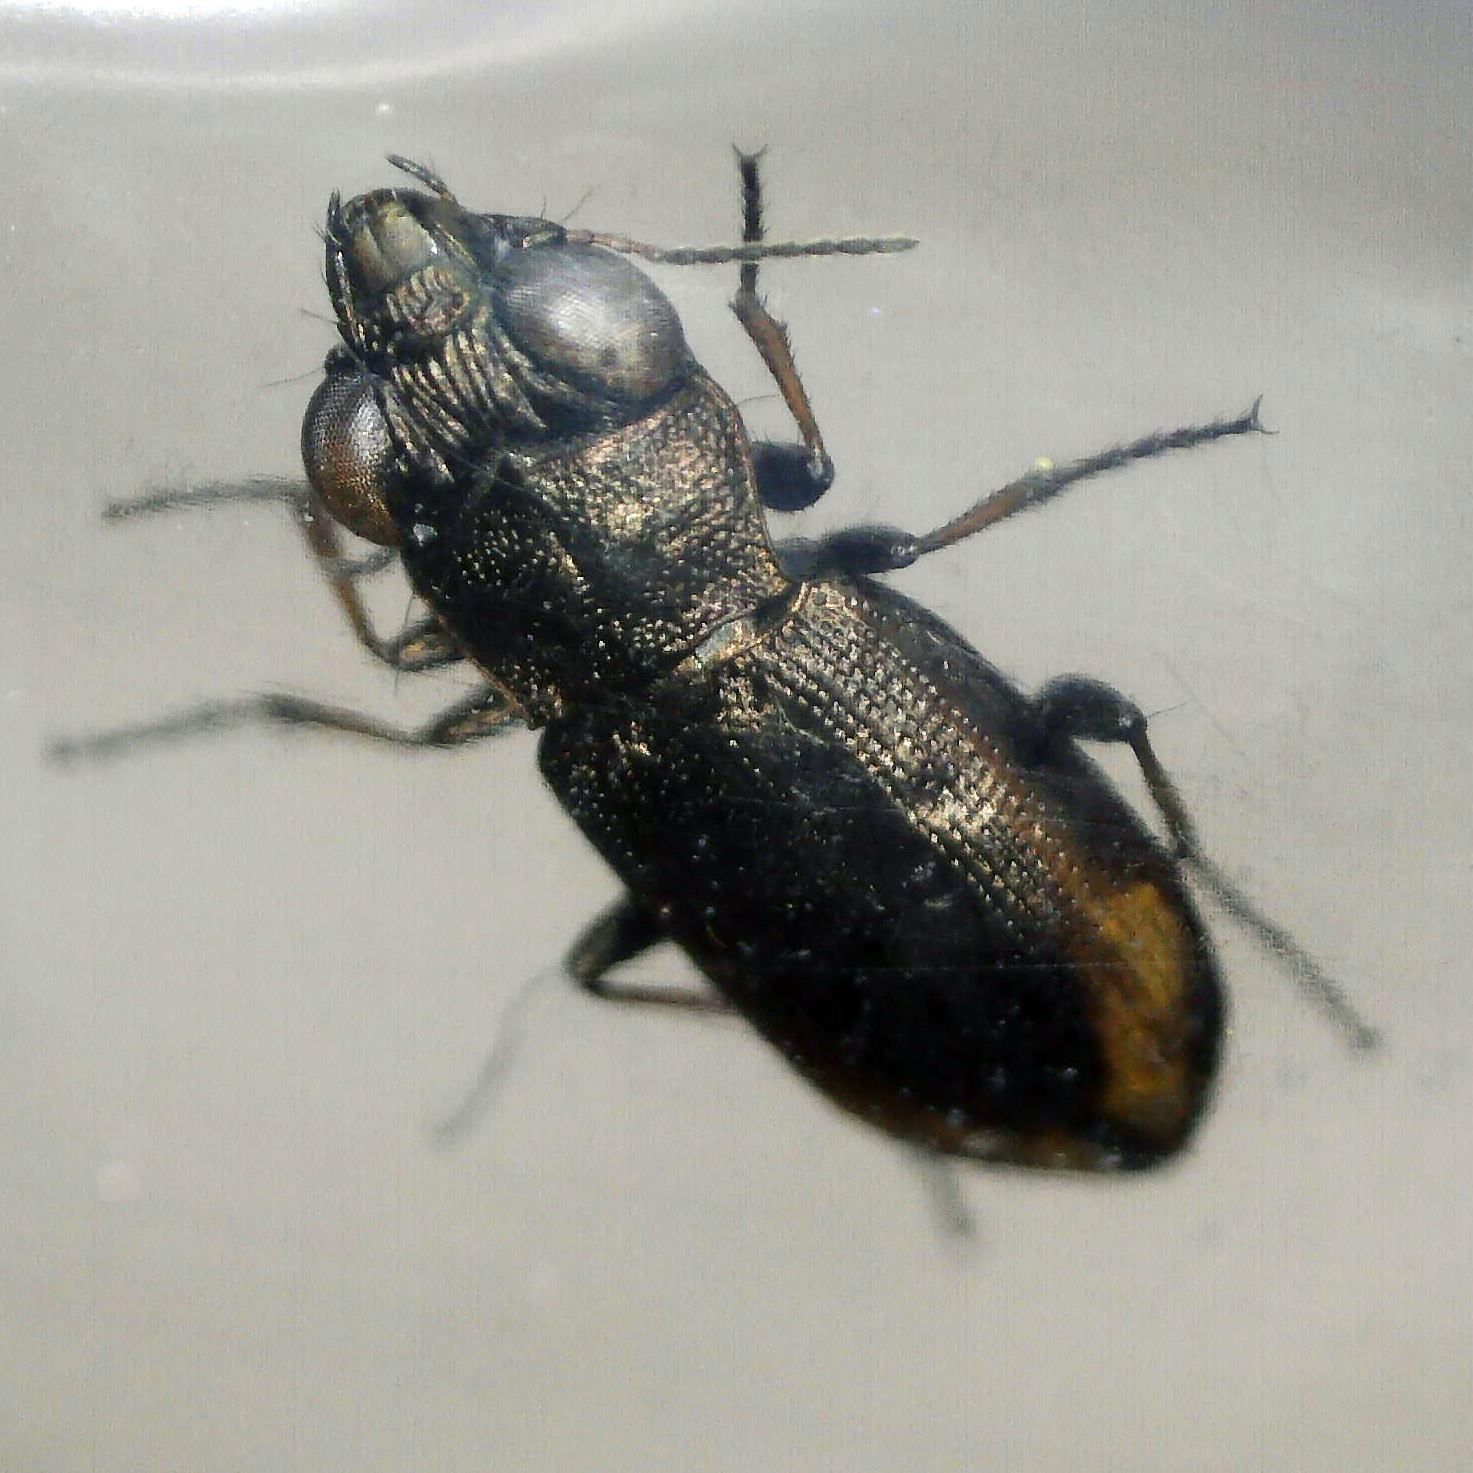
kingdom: Animalia
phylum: Arthropoda
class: Insecta
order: Coleoptera
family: Carabidae
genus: Notiophilus
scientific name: Notiophilus biguttatus
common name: Spotted gazelle beetle
